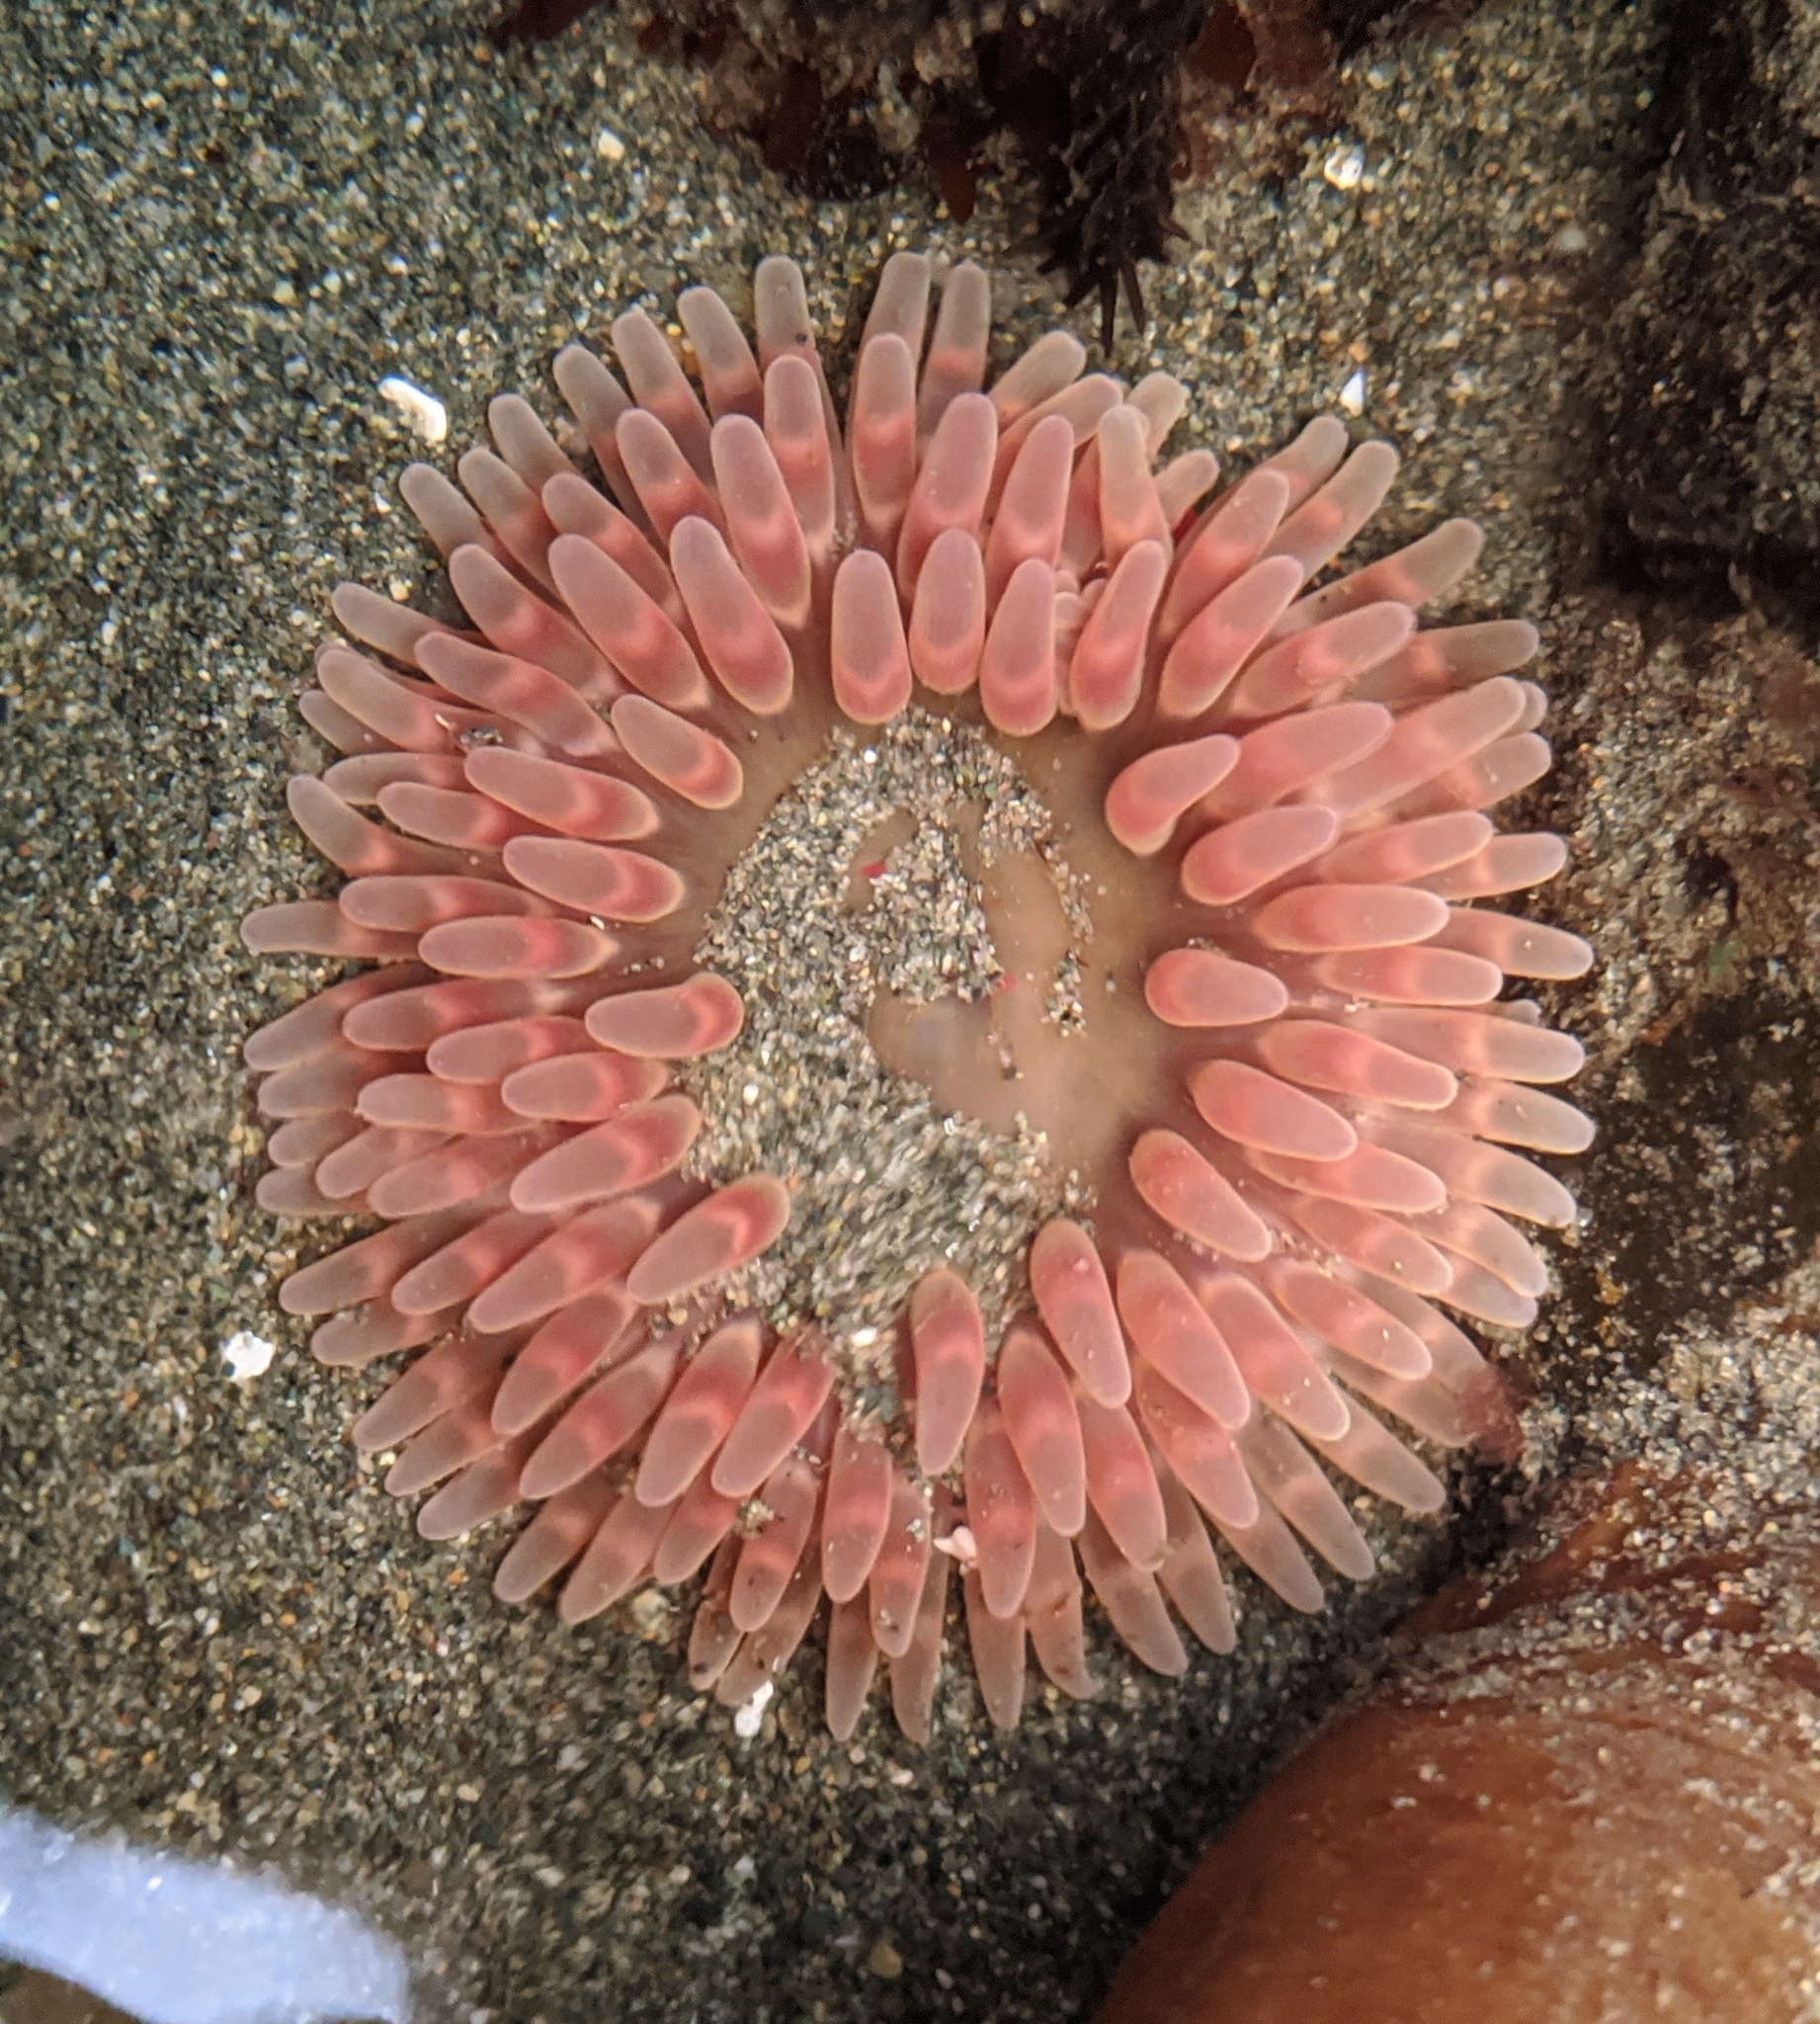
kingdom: Animalia
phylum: Cnidaria
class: Anthozoa
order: Actiniaria
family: Actiniidae
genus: Urticina
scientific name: Urticina clandestina
